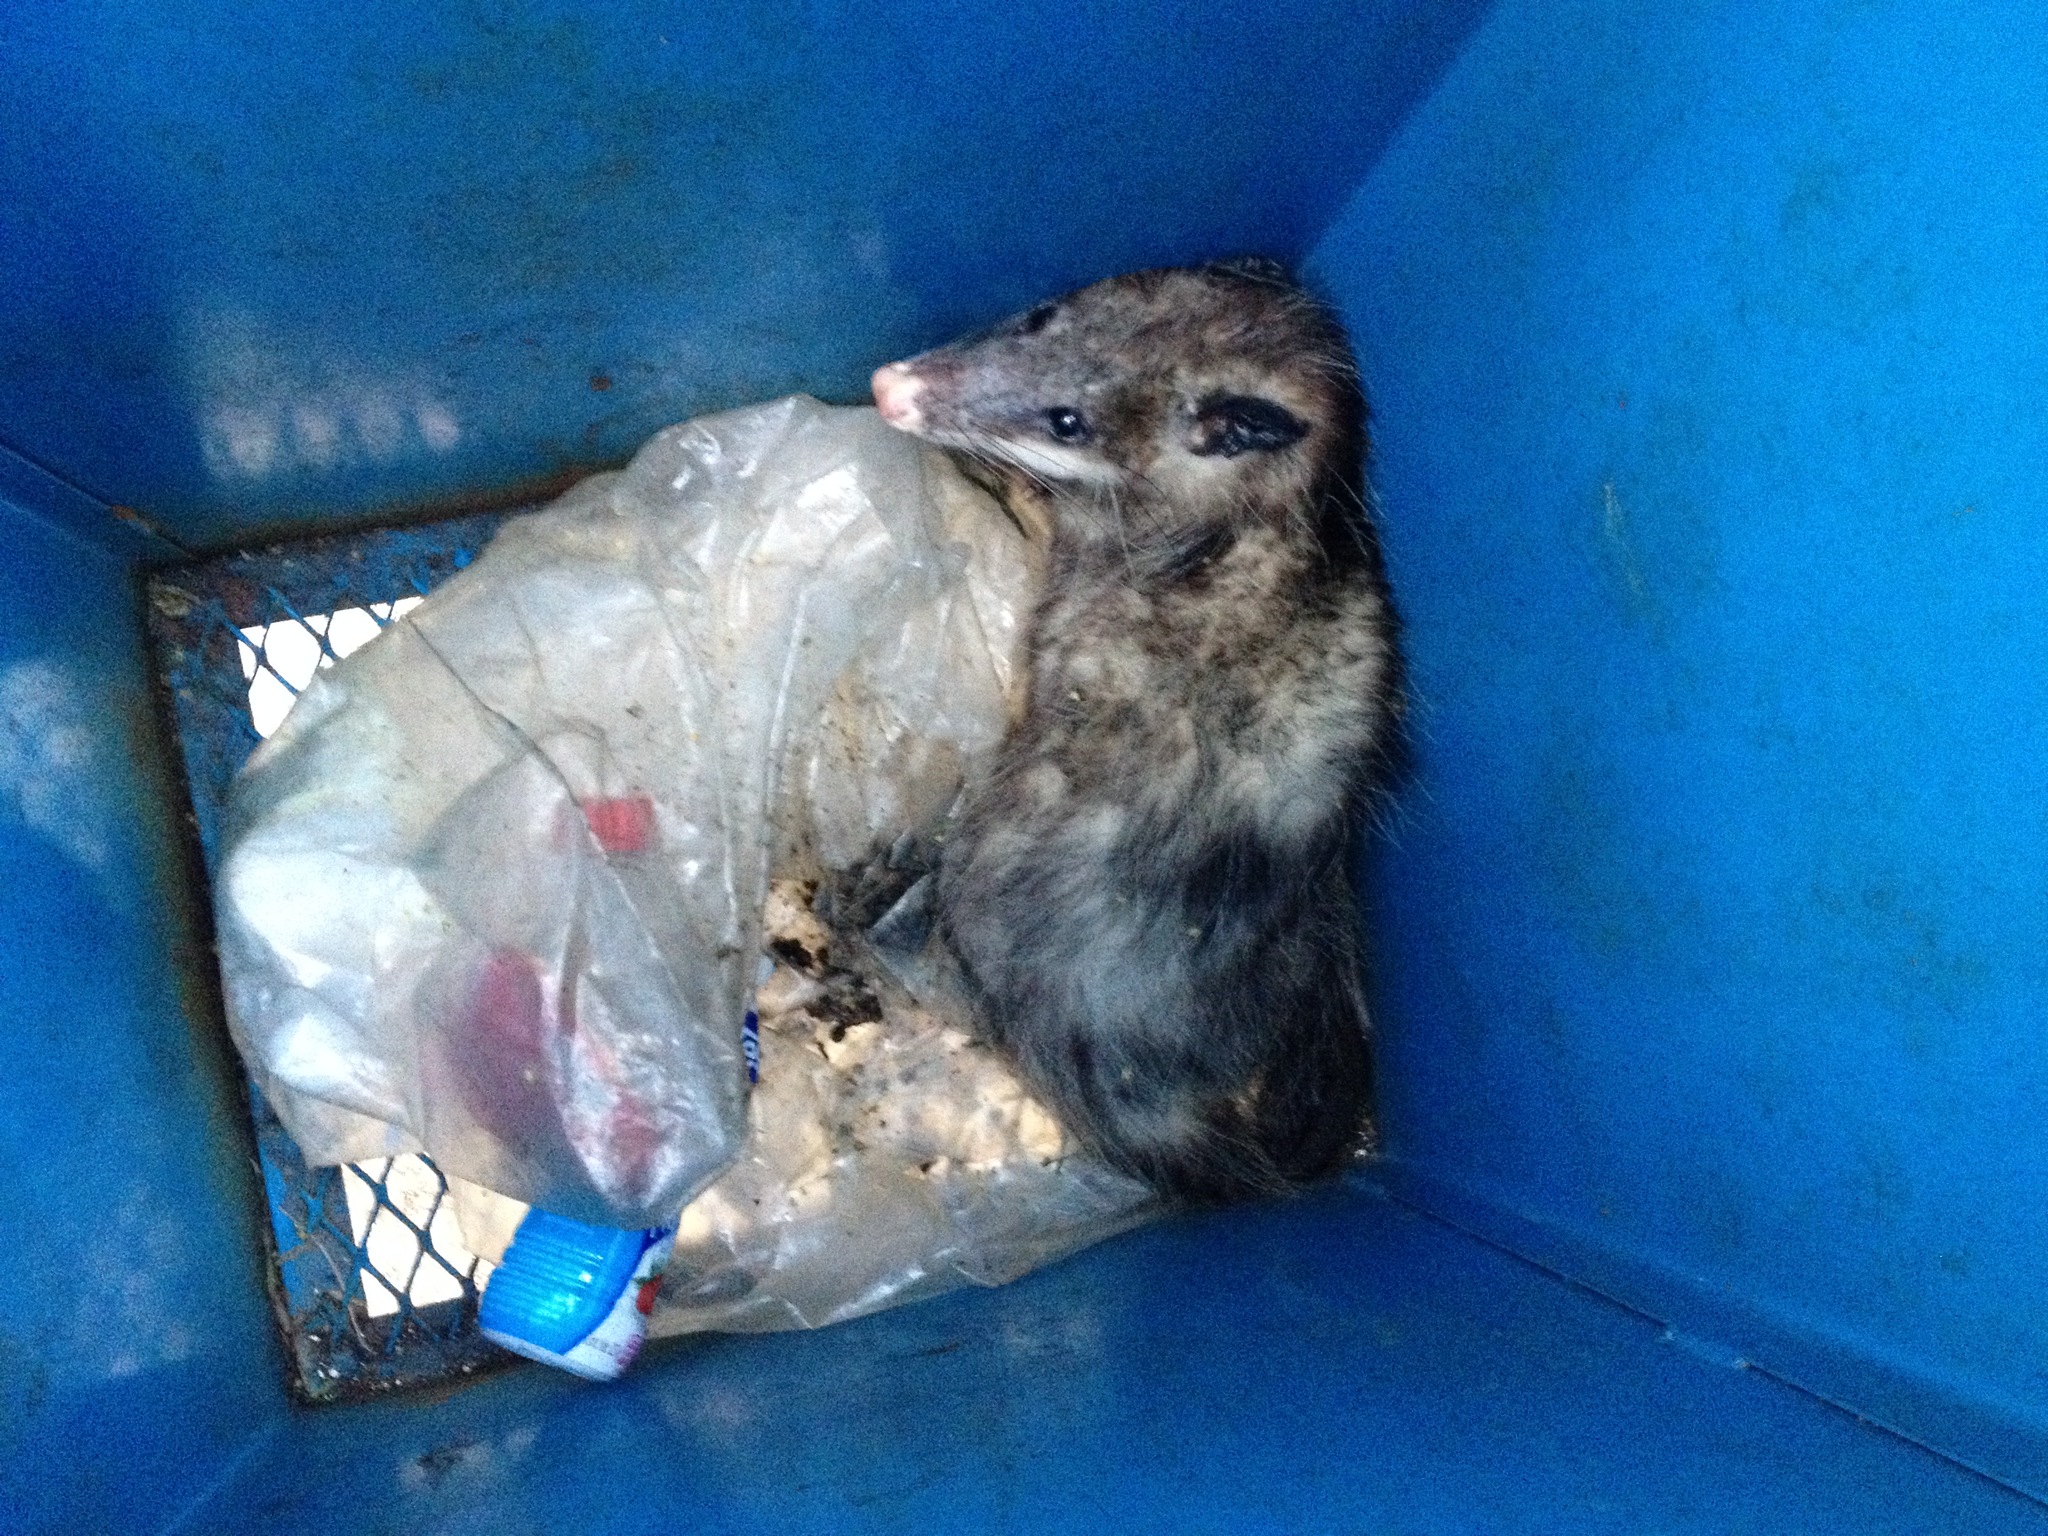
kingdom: Animalia
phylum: Chordata
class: Mammalia
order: Didelphimorphia
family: Didelphidae
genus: Didelphis
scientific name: Didelphis virginiana
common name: Virginia opossum
